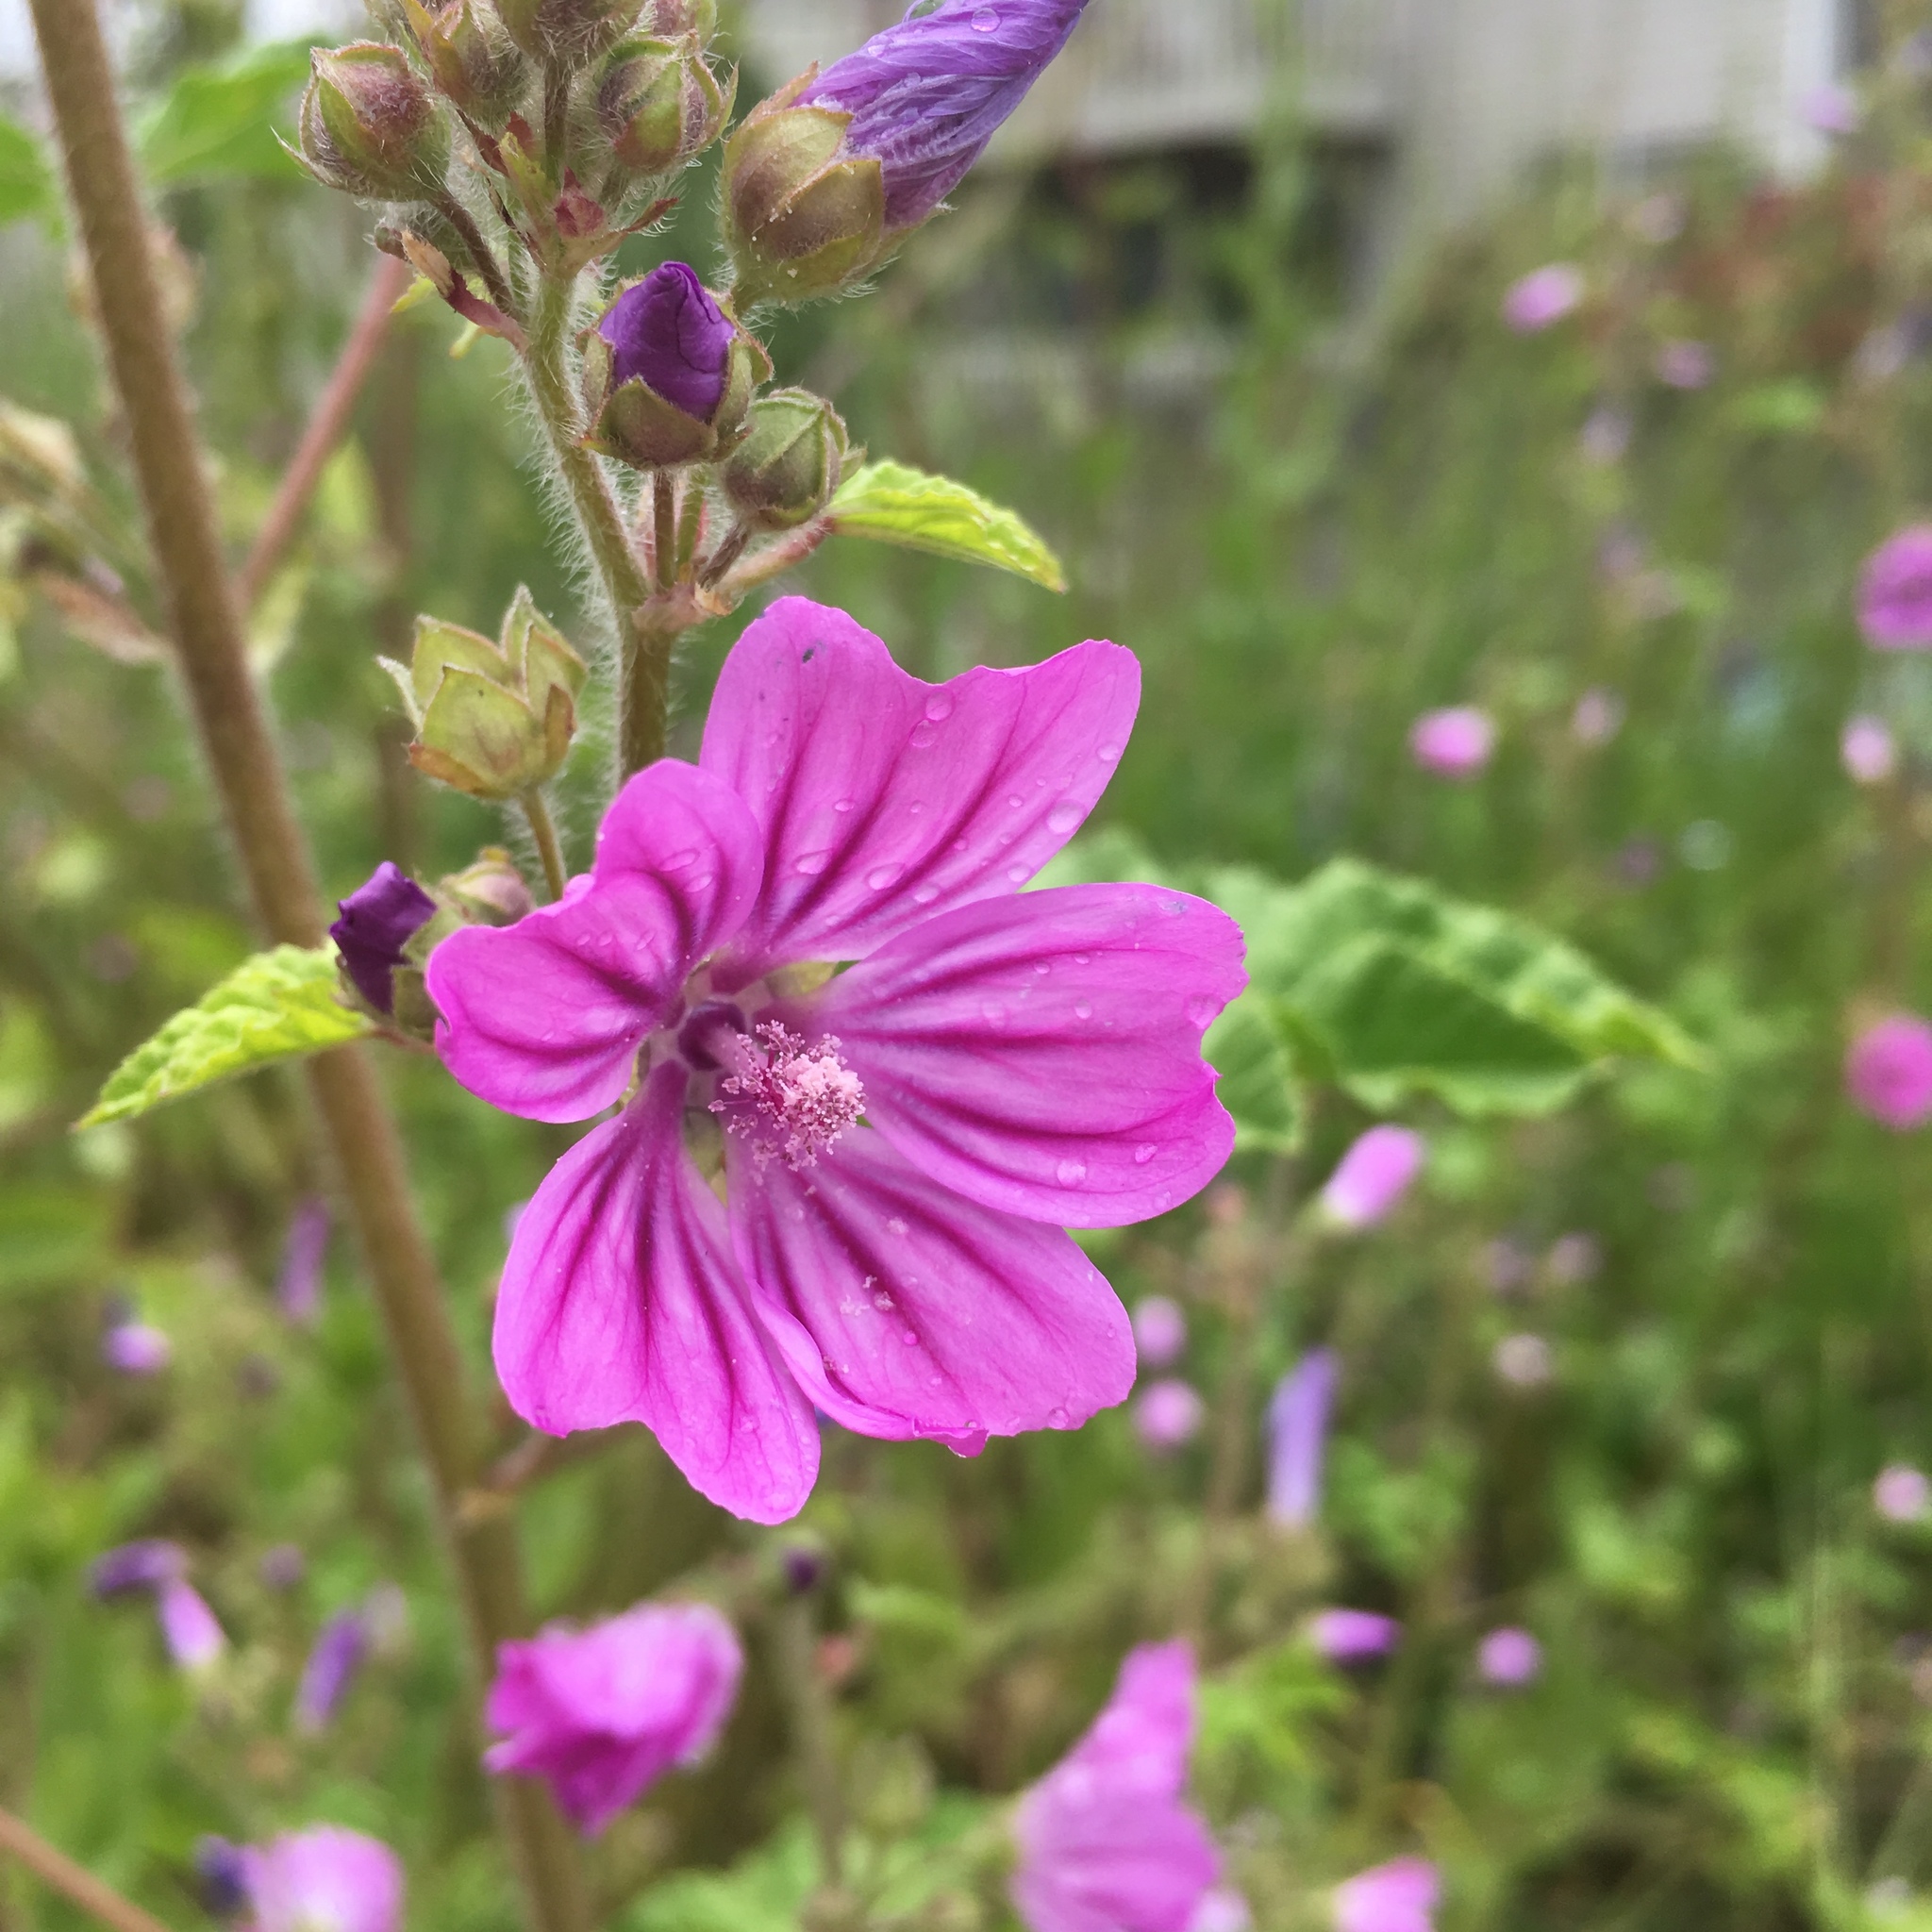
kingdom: Plantae
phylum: Tracheophyta
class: Magnoliopsida
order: Malvales
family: Malvaceae
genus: Malva
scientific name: Malva sylvestris
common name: Common mallow
